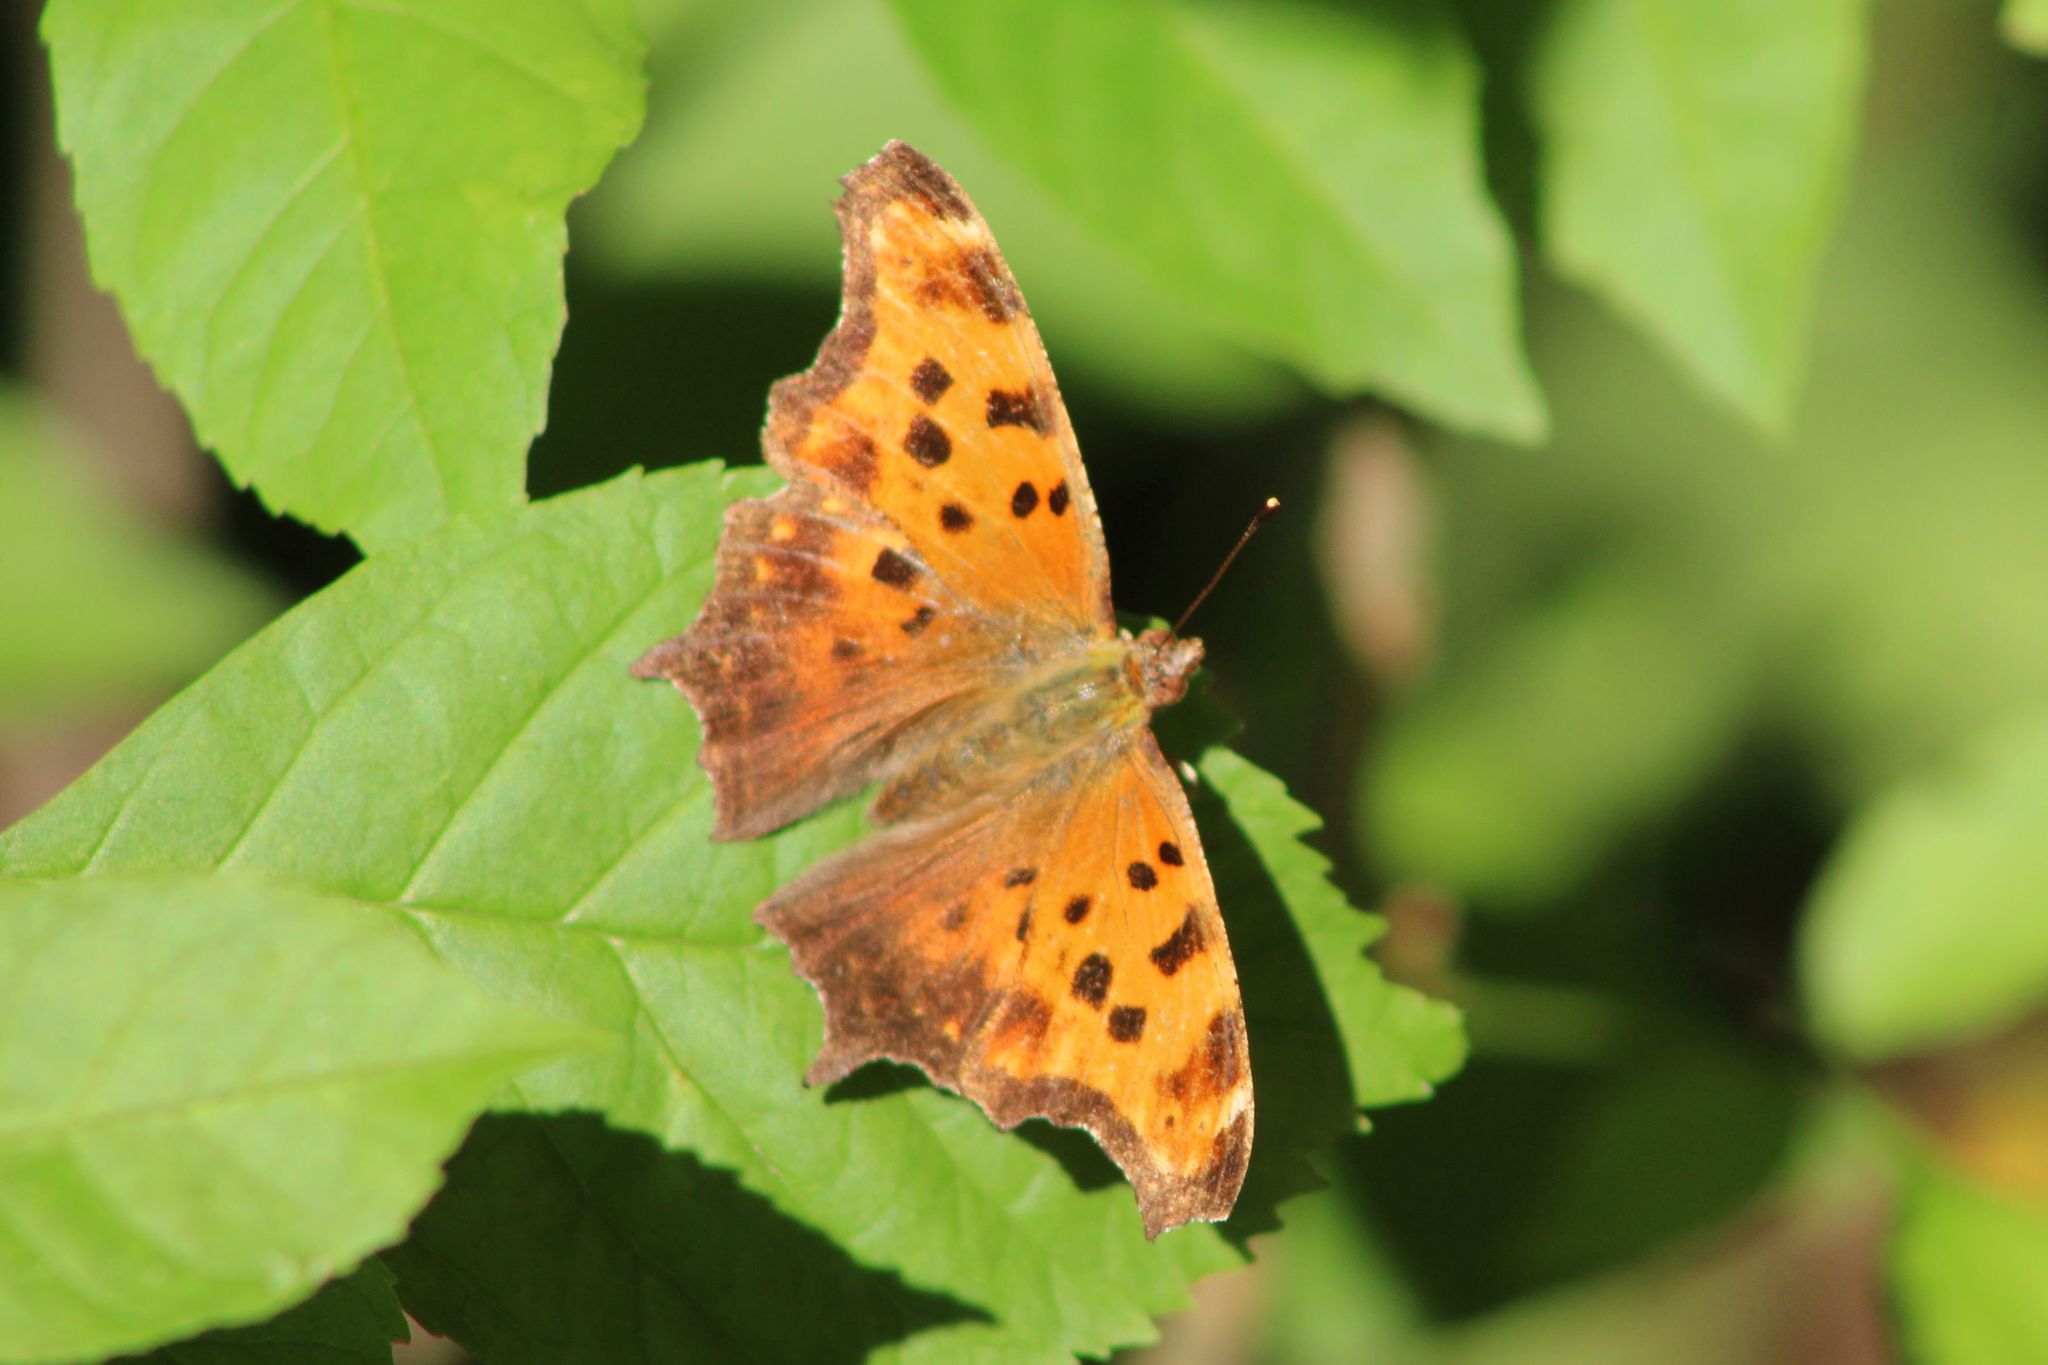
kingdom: Animalia
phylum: Arthropoda
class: Insecta
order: Lepidoptera
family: Nymphalidae
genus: Polygonia
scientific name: Polygonia comma
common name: Eastern comma
